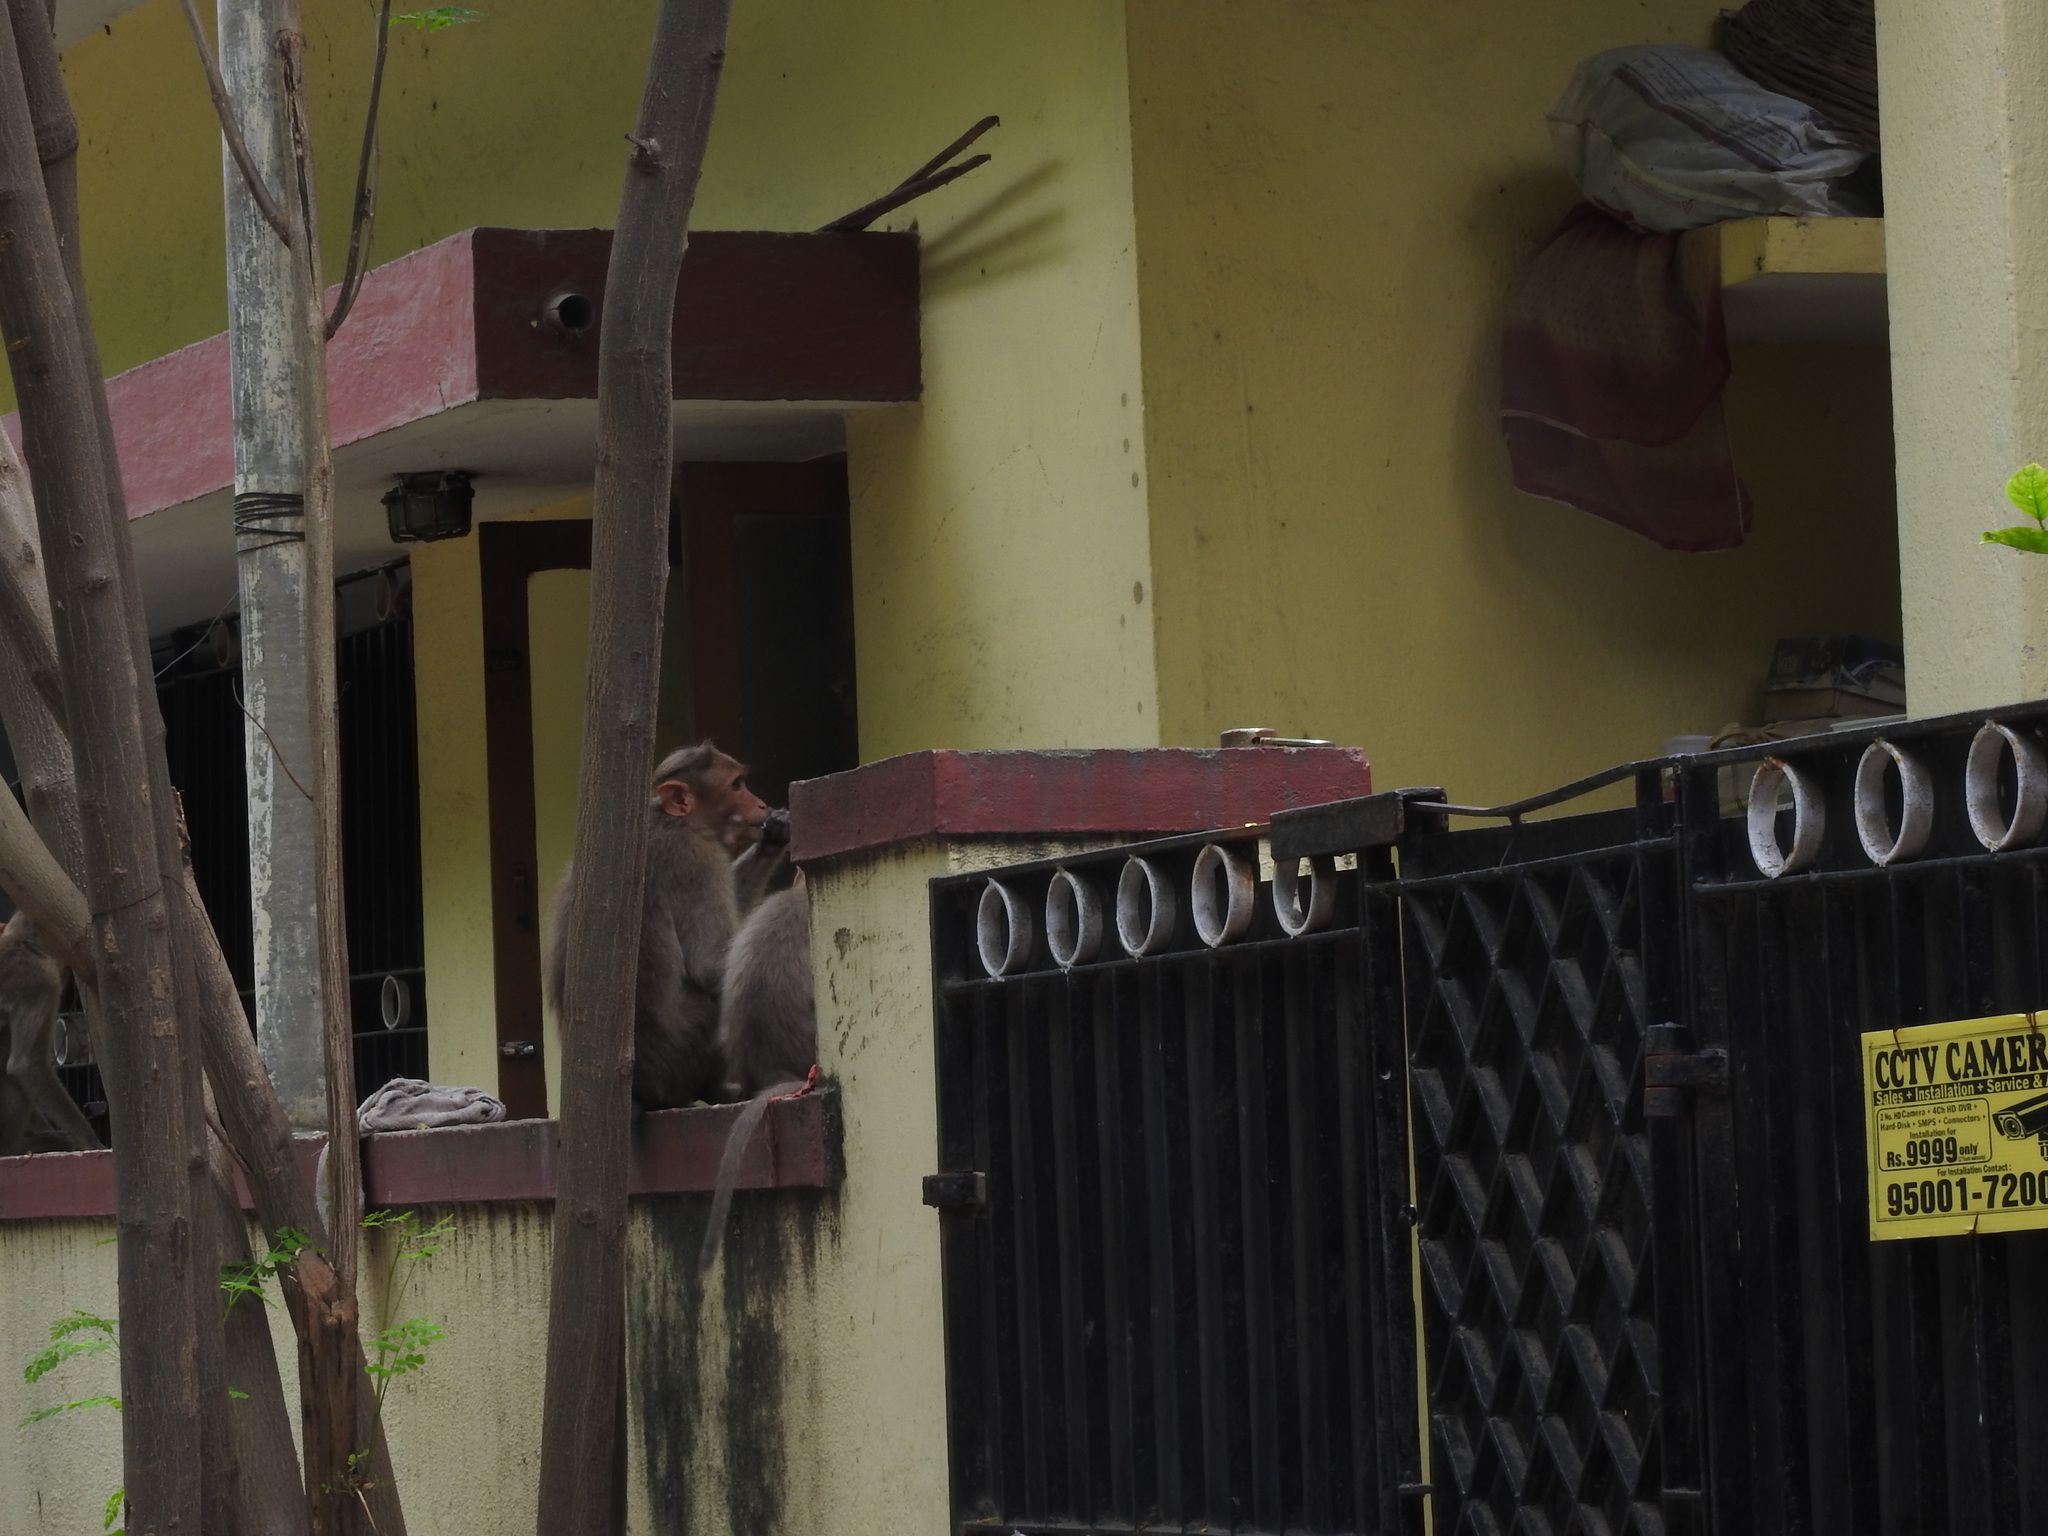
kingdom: Animalia
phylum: Chordata
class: Mammalia
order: Primates
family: Cercopithecidae
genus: Macaca
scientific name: Macaca radiata
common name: Bonnet macaque
